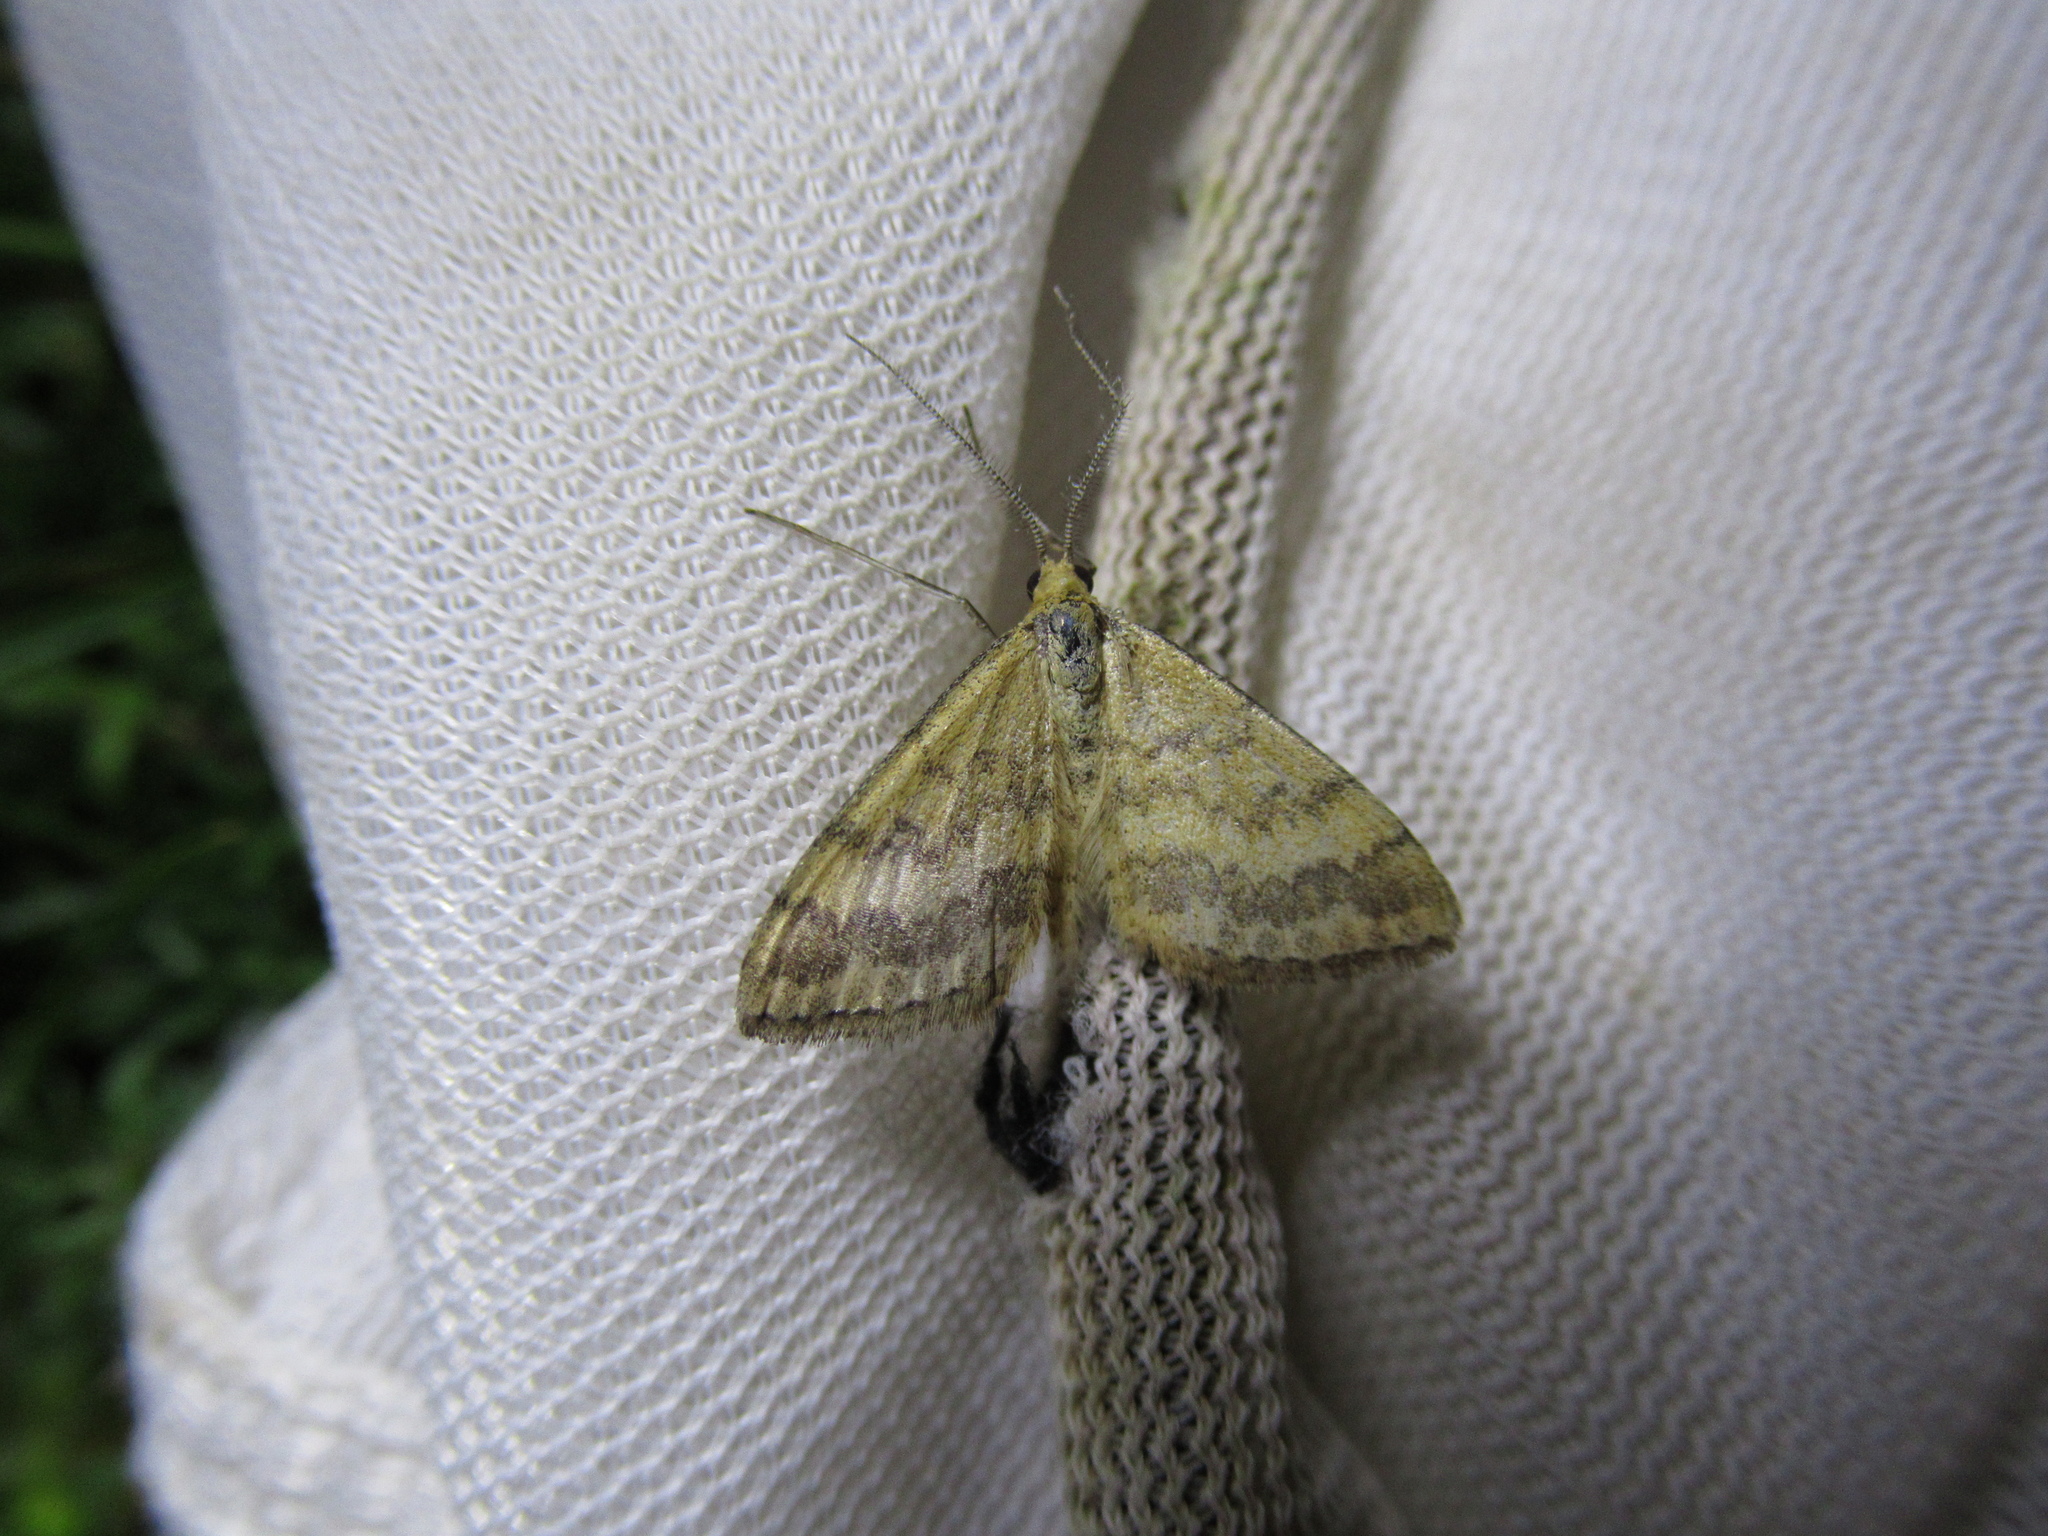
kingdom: Animalia
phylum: Arthropoda
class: Insecta
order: Lepidoptera
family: Geometridae
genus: Scopula
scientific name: Scopula rubraria
